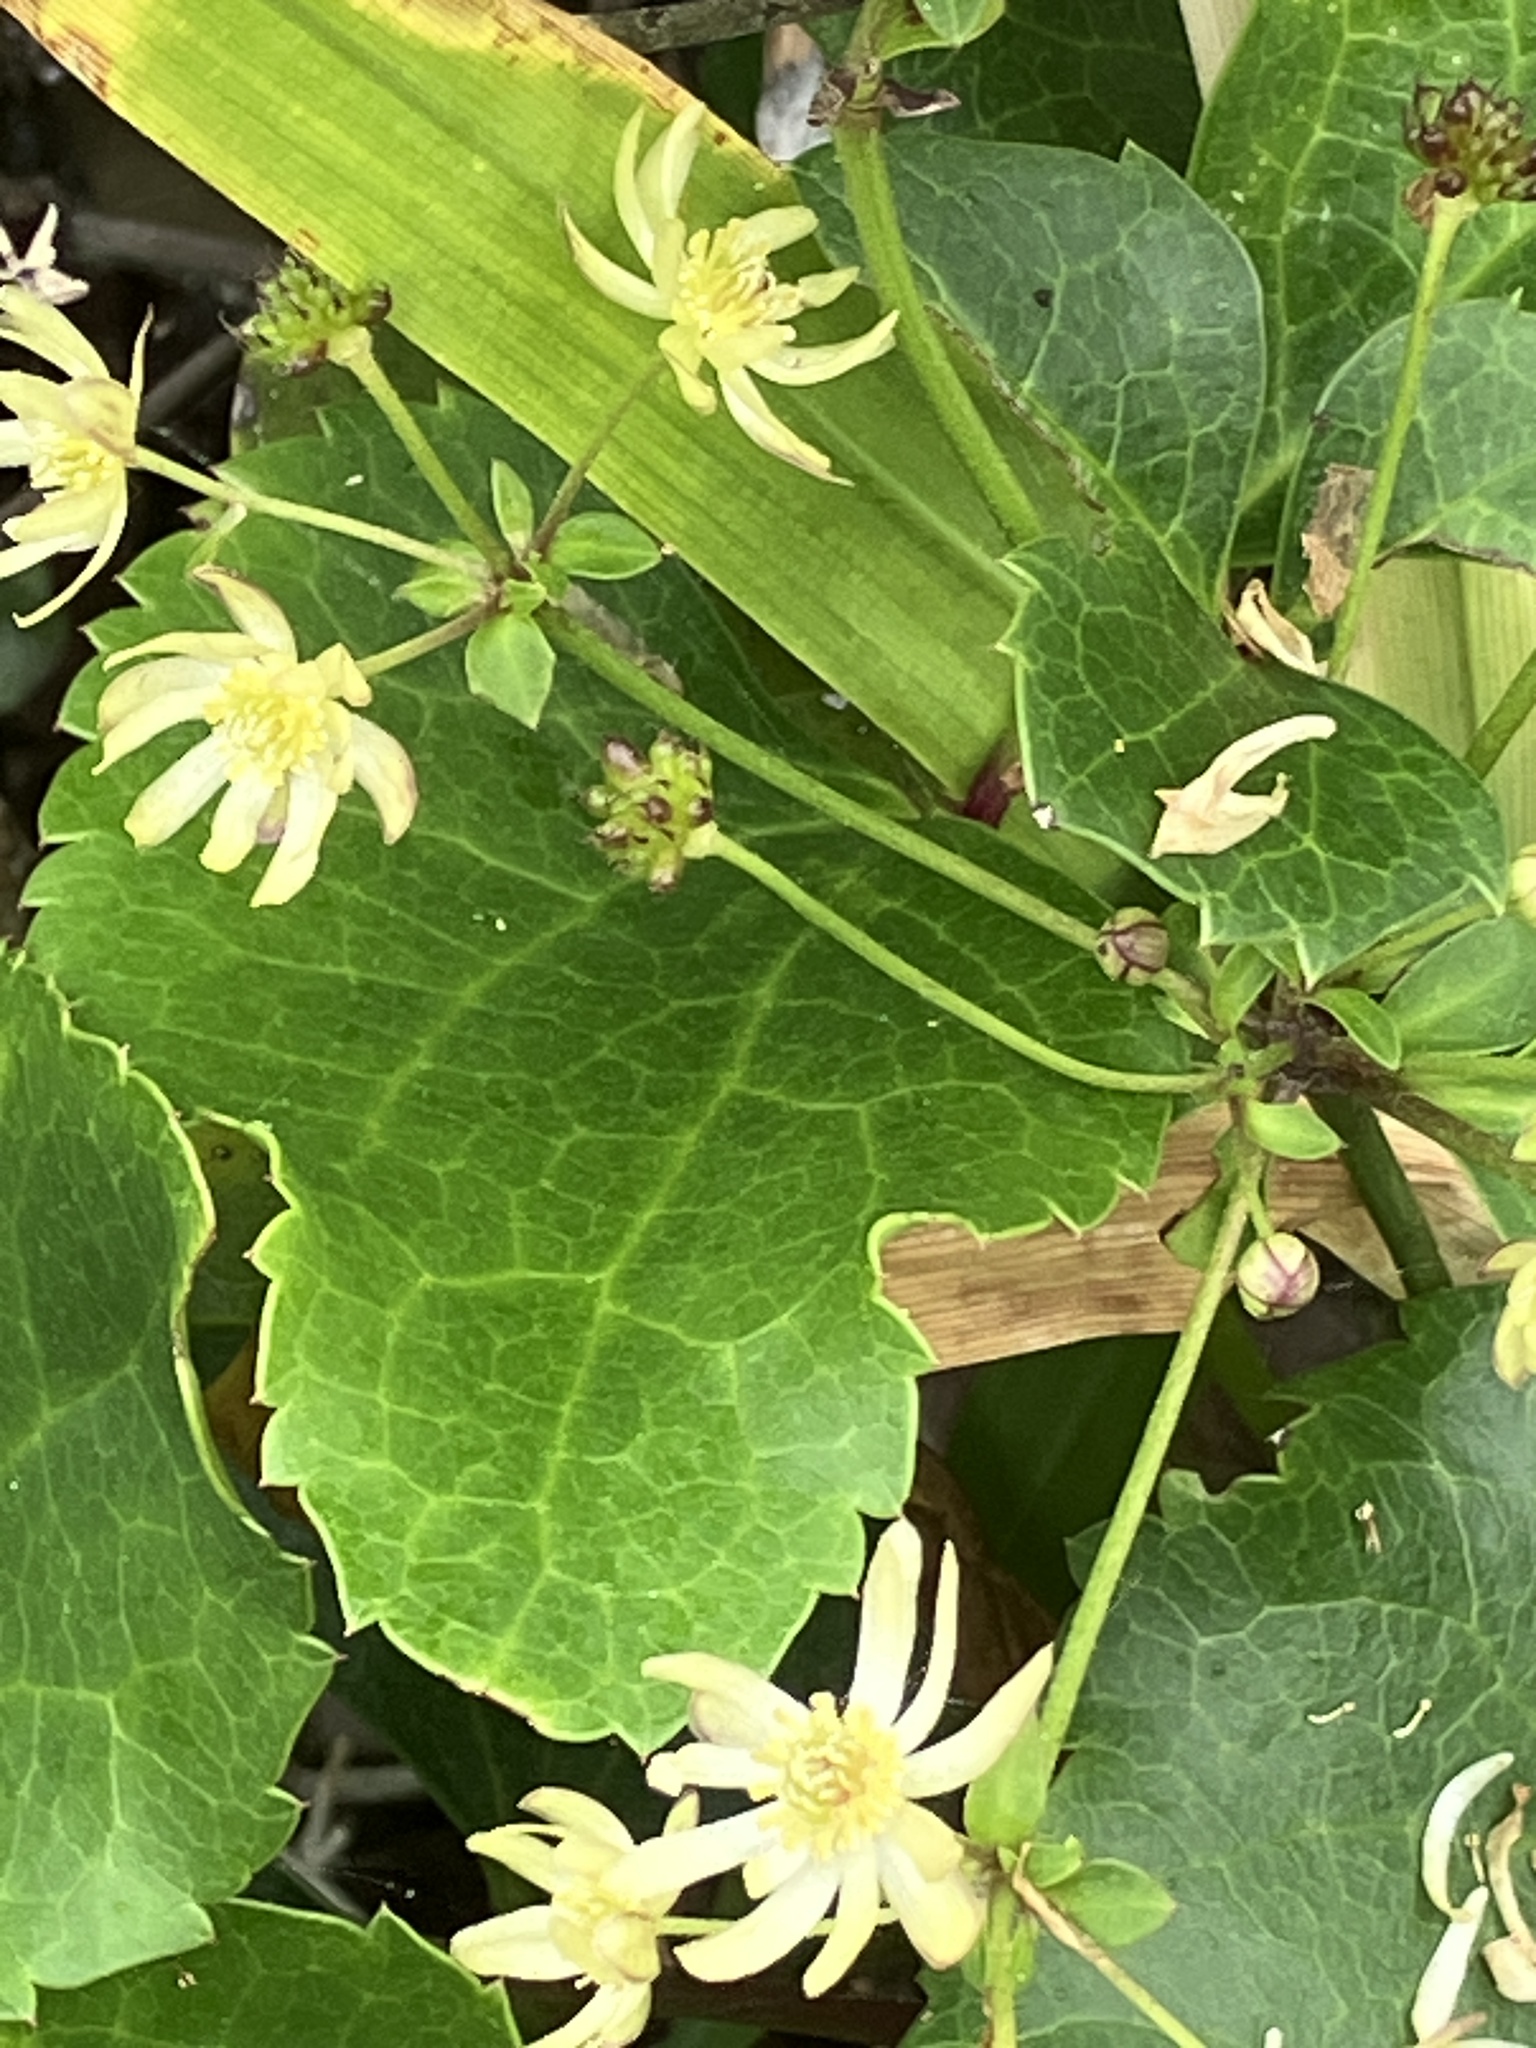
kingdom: Plantae
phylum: Tracheophyta
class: Magnoliopsida
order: Ranunculales
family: Ranunculaceae
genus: Knowltonia
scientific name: Knowltonia vesicatoria
